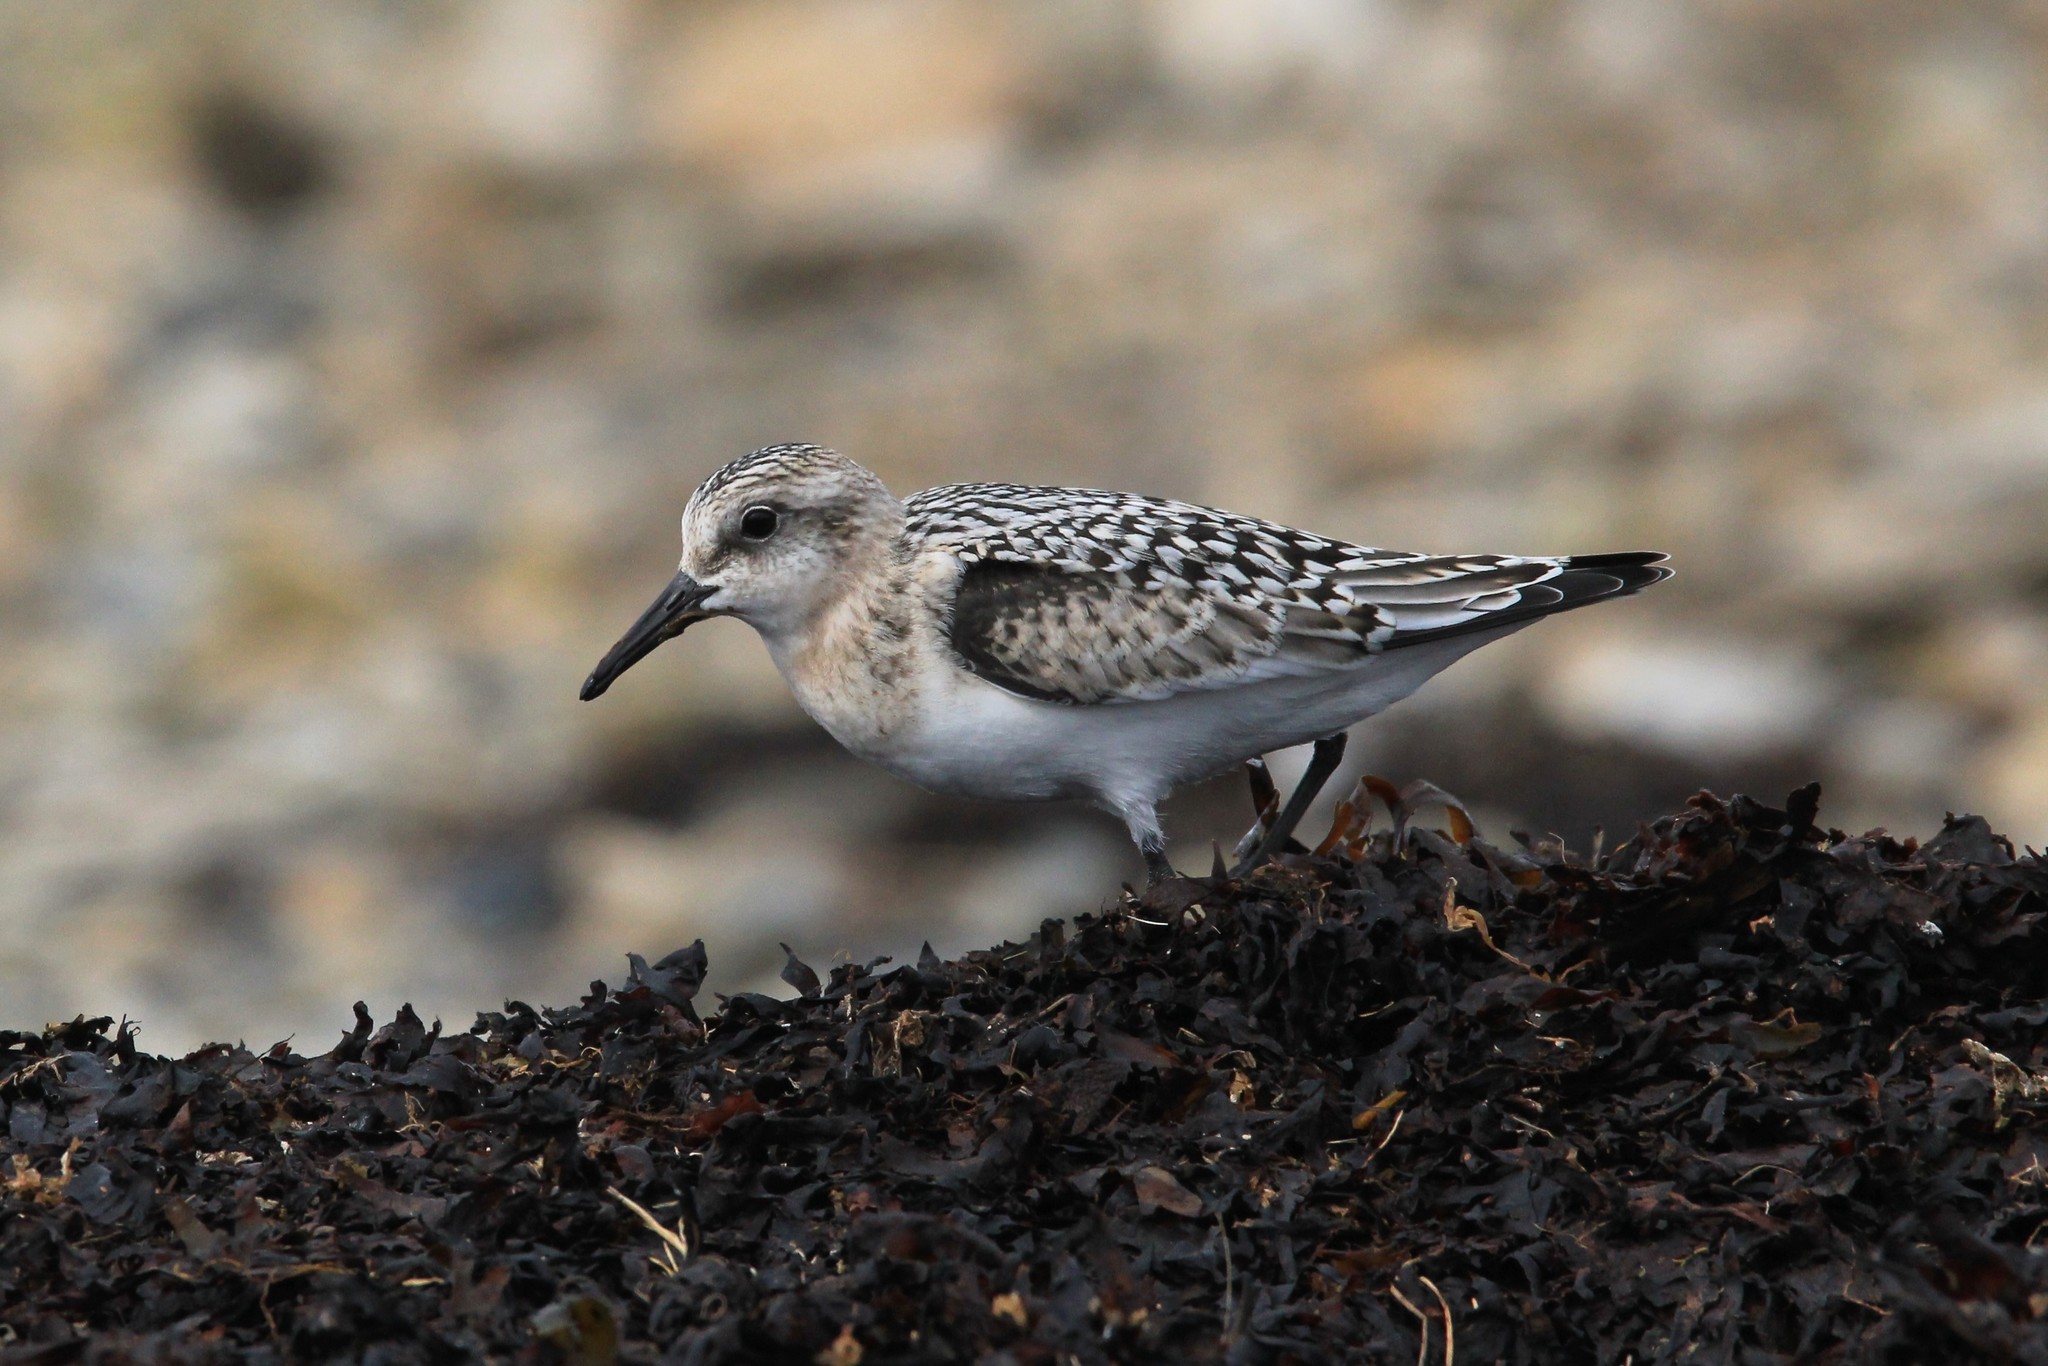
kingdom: Animalia
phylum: Chordata
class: Aves
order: Charadriiformes
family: Scolopacidae
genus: Calidris
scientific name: Calidris alba
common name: Sanderling
